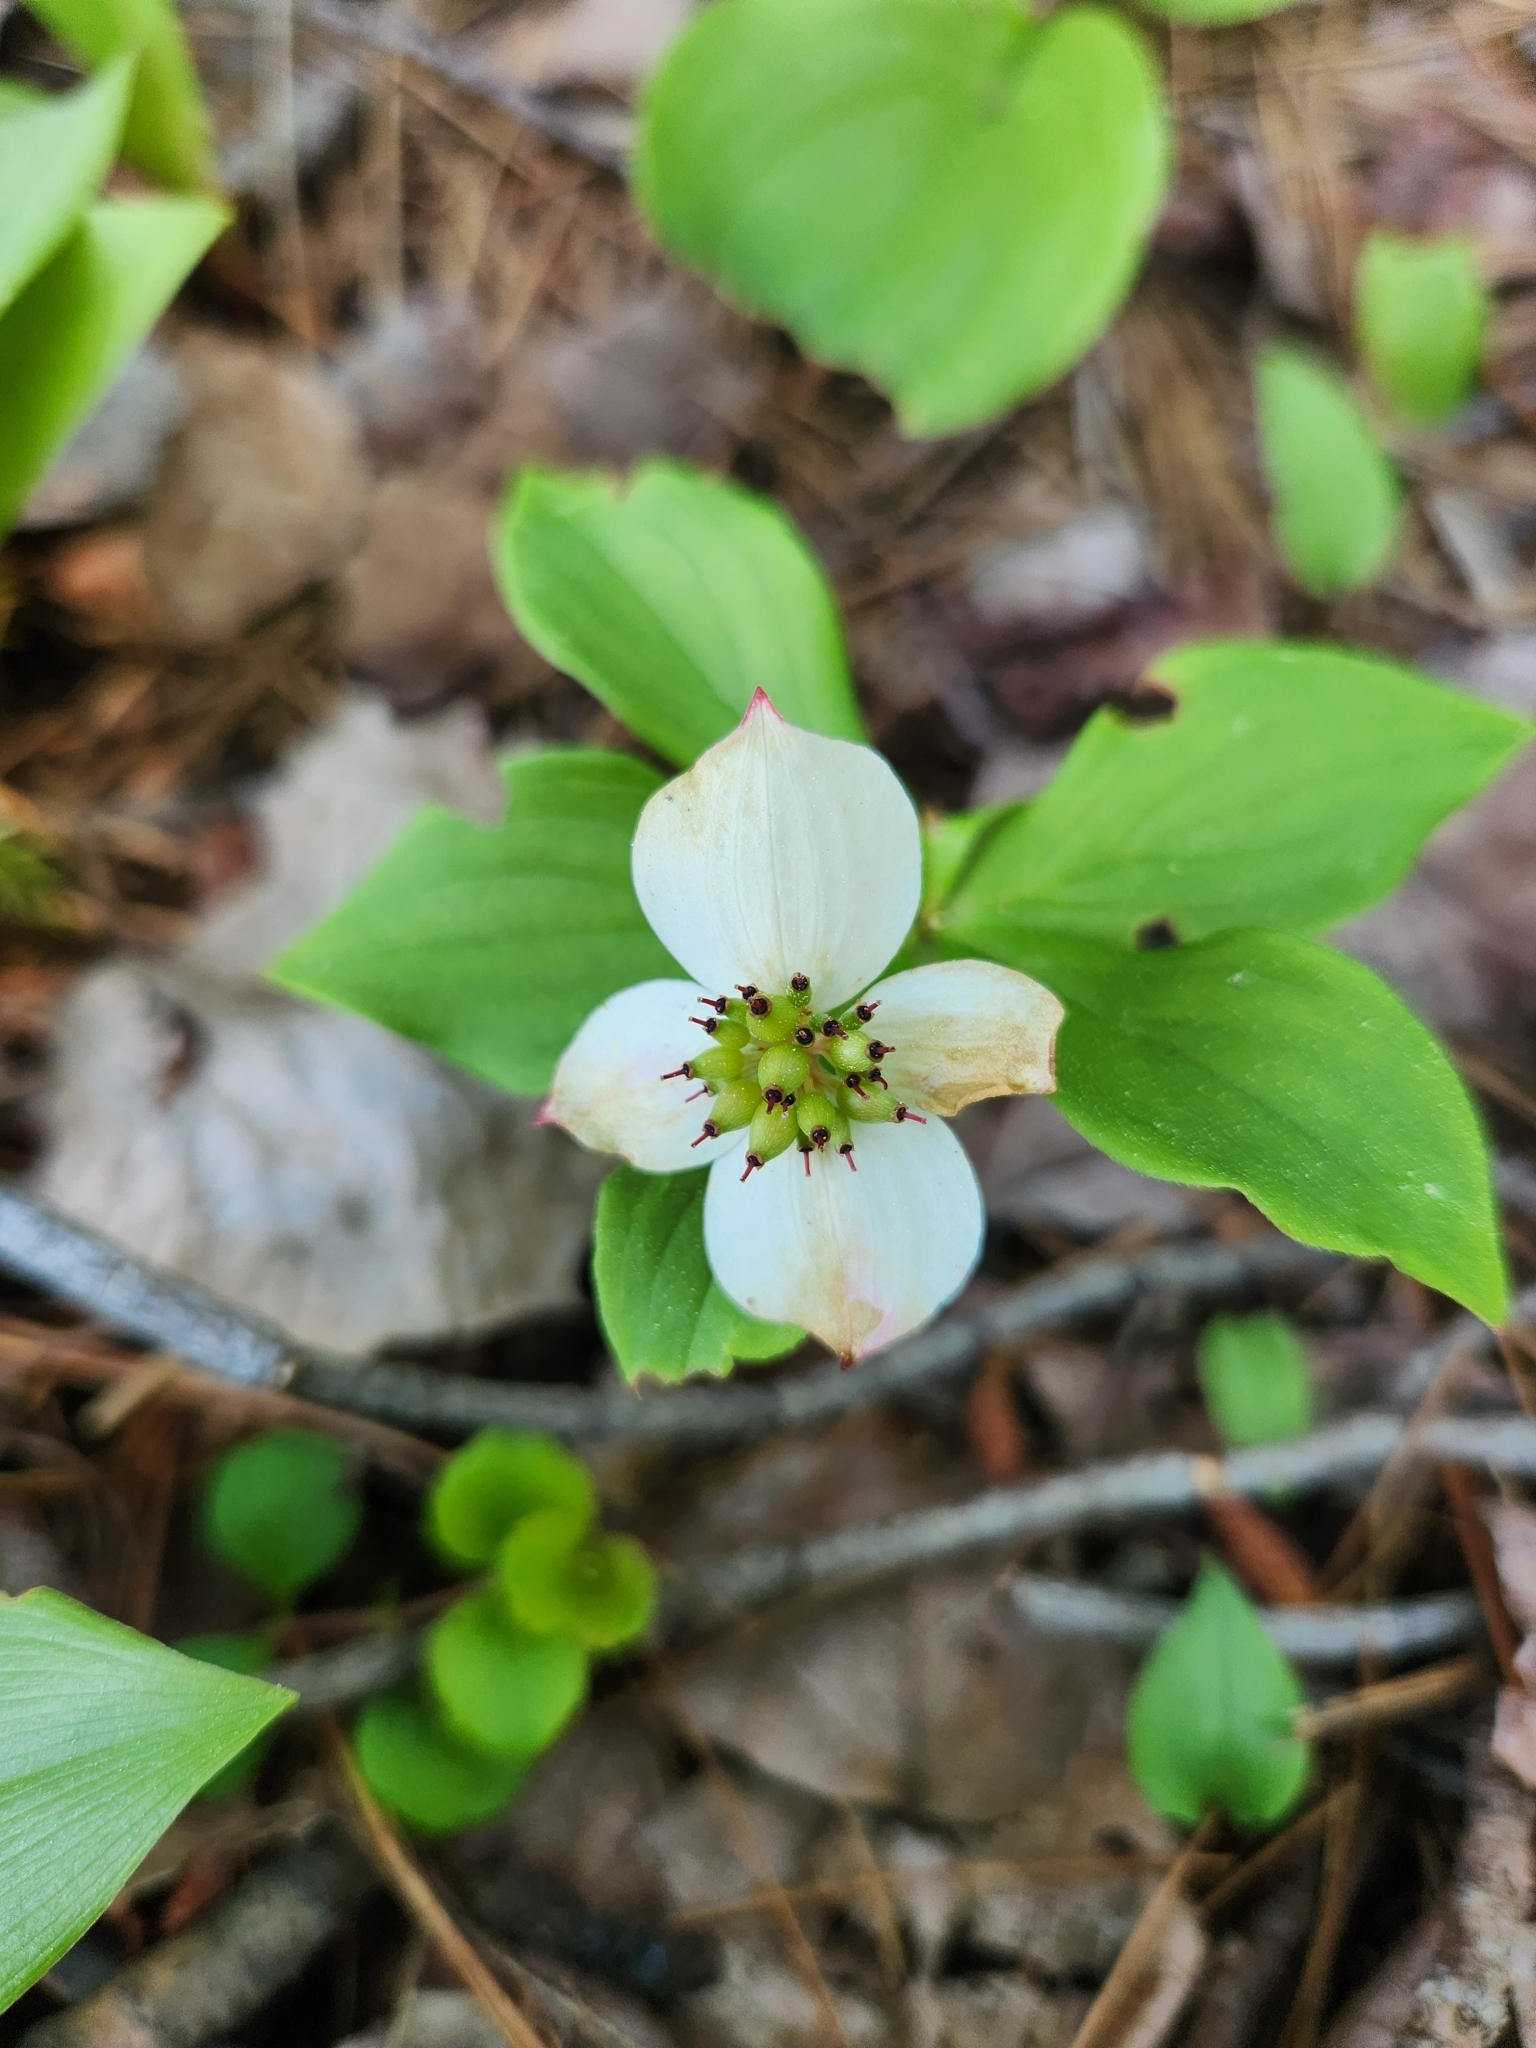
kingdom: Plantae
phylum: Tracheophyta
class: Magnoliopsida
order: Cornales
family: Cornaceae
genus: Cornus
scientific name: Cornus canadensis
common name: Creeping dogwood
